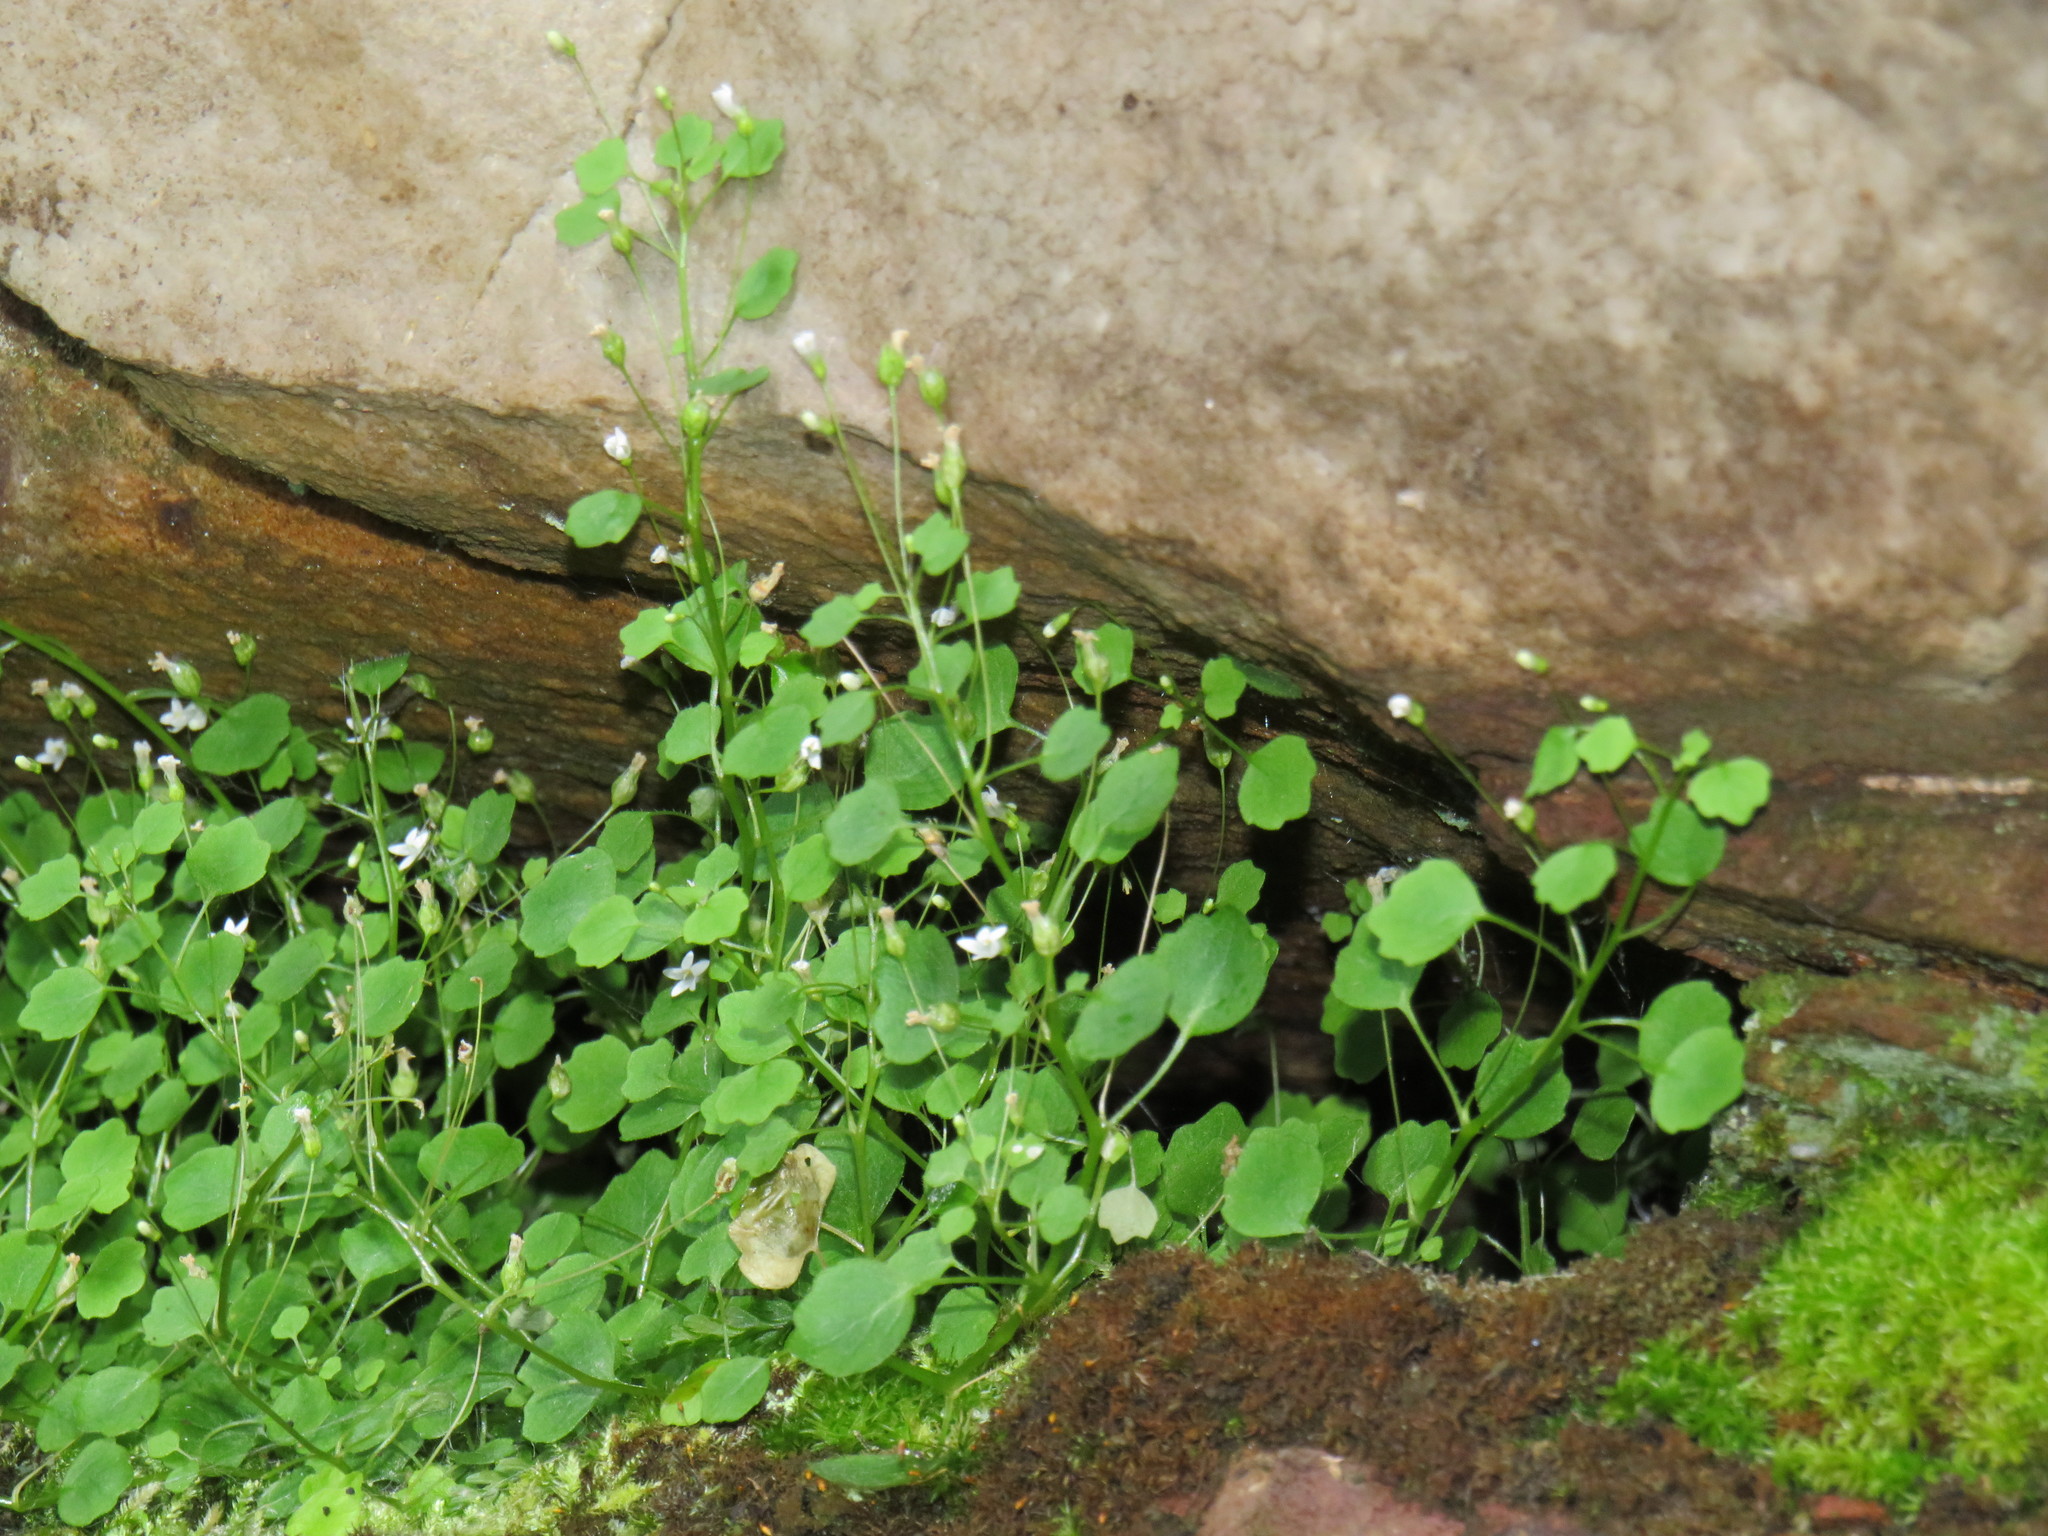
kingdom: Plantae
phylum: Tracheophyta
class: Magnoliopsida
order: Asterales
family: Campanulaceae
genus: Wimmerella
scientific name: Wimmerella pygmaea
